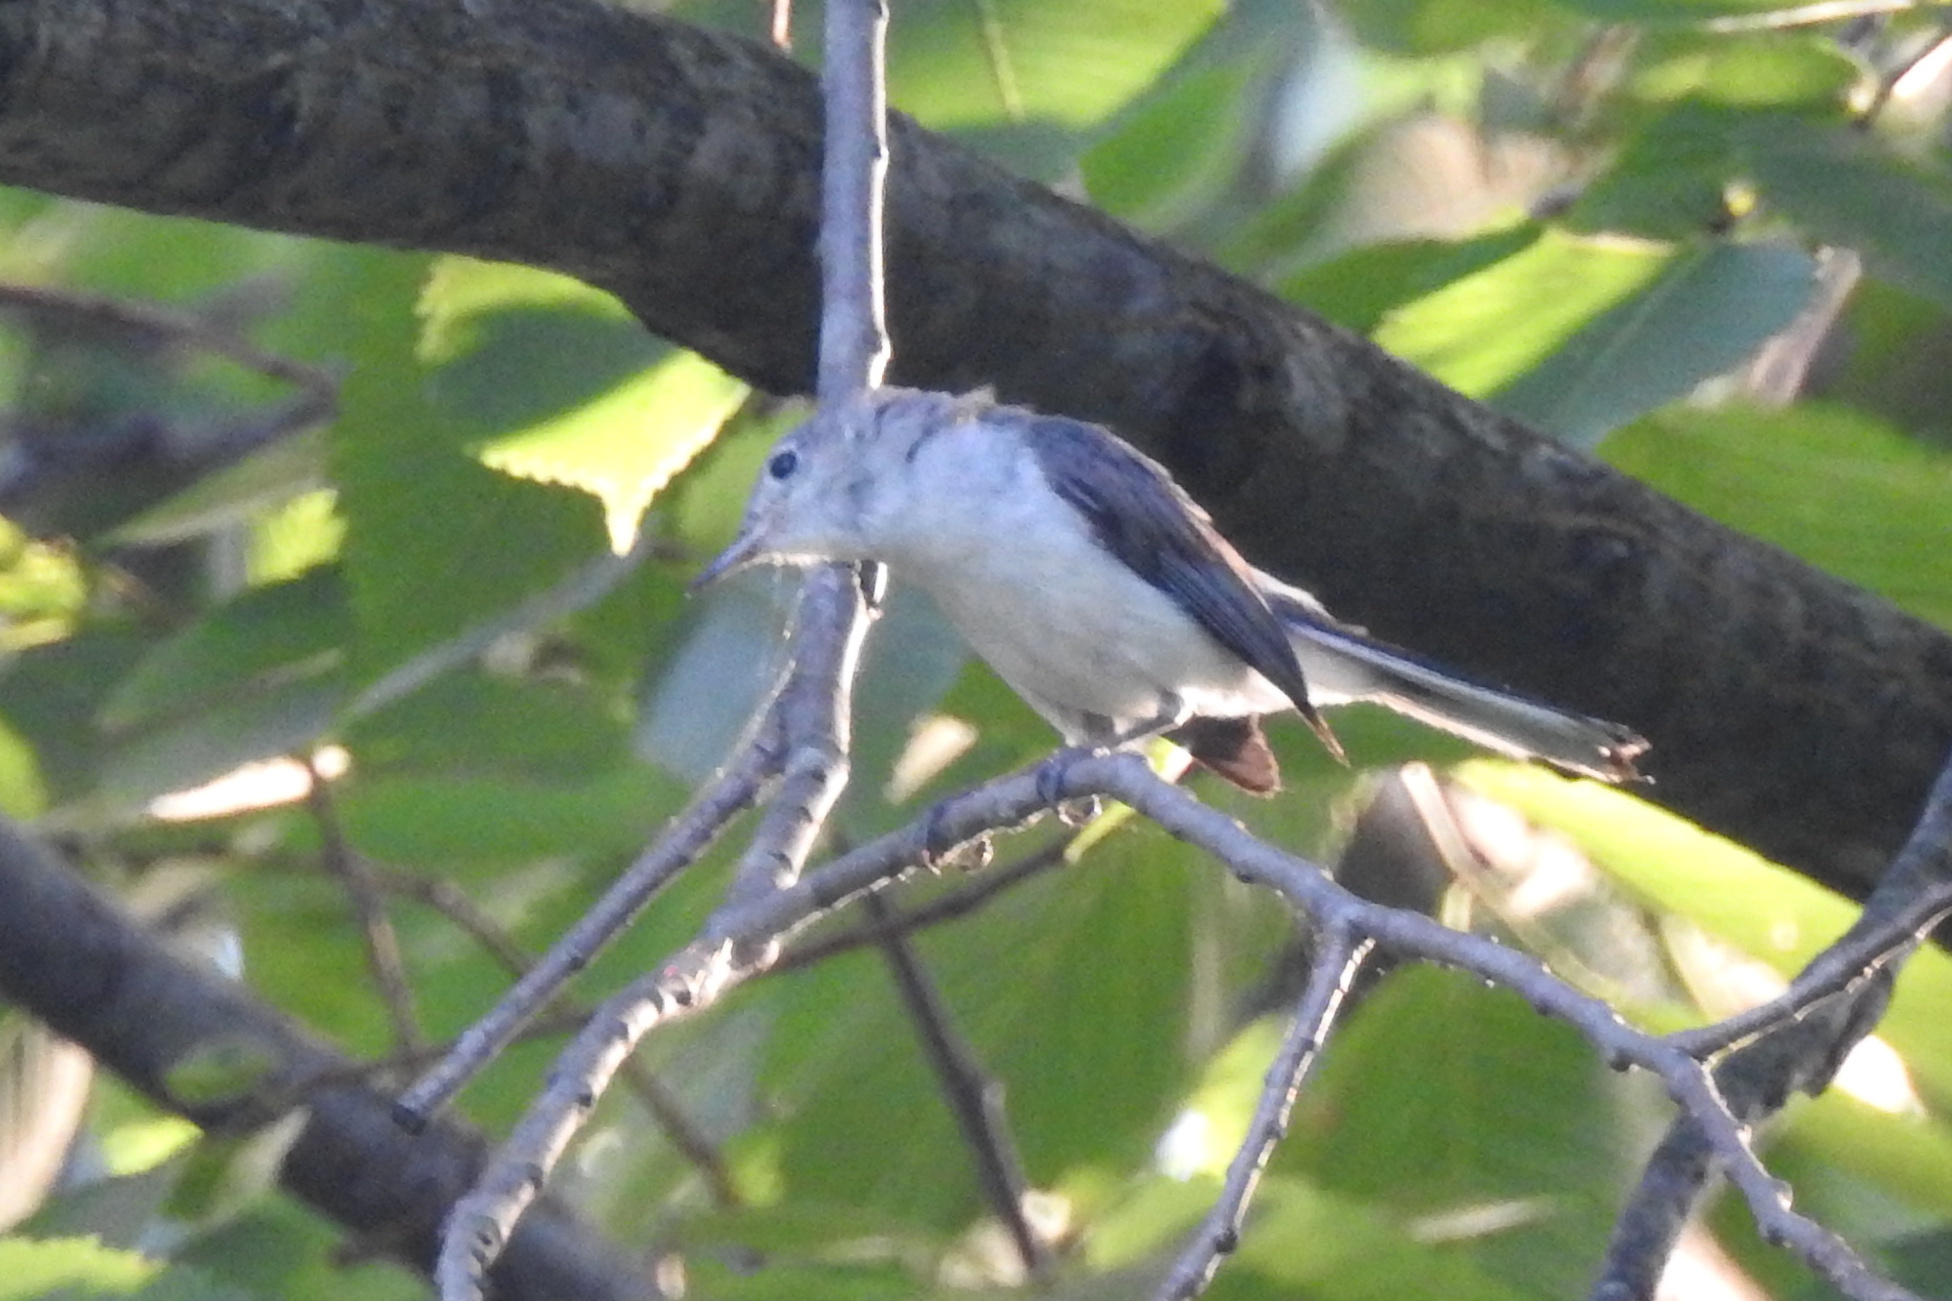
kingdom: Animalia
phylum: Chordata
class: Aves
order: Passeriformes
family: Polioptilidae
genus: Polioptila
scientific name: Polioptila caerulea
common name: Blue-gray gnatcatcher
